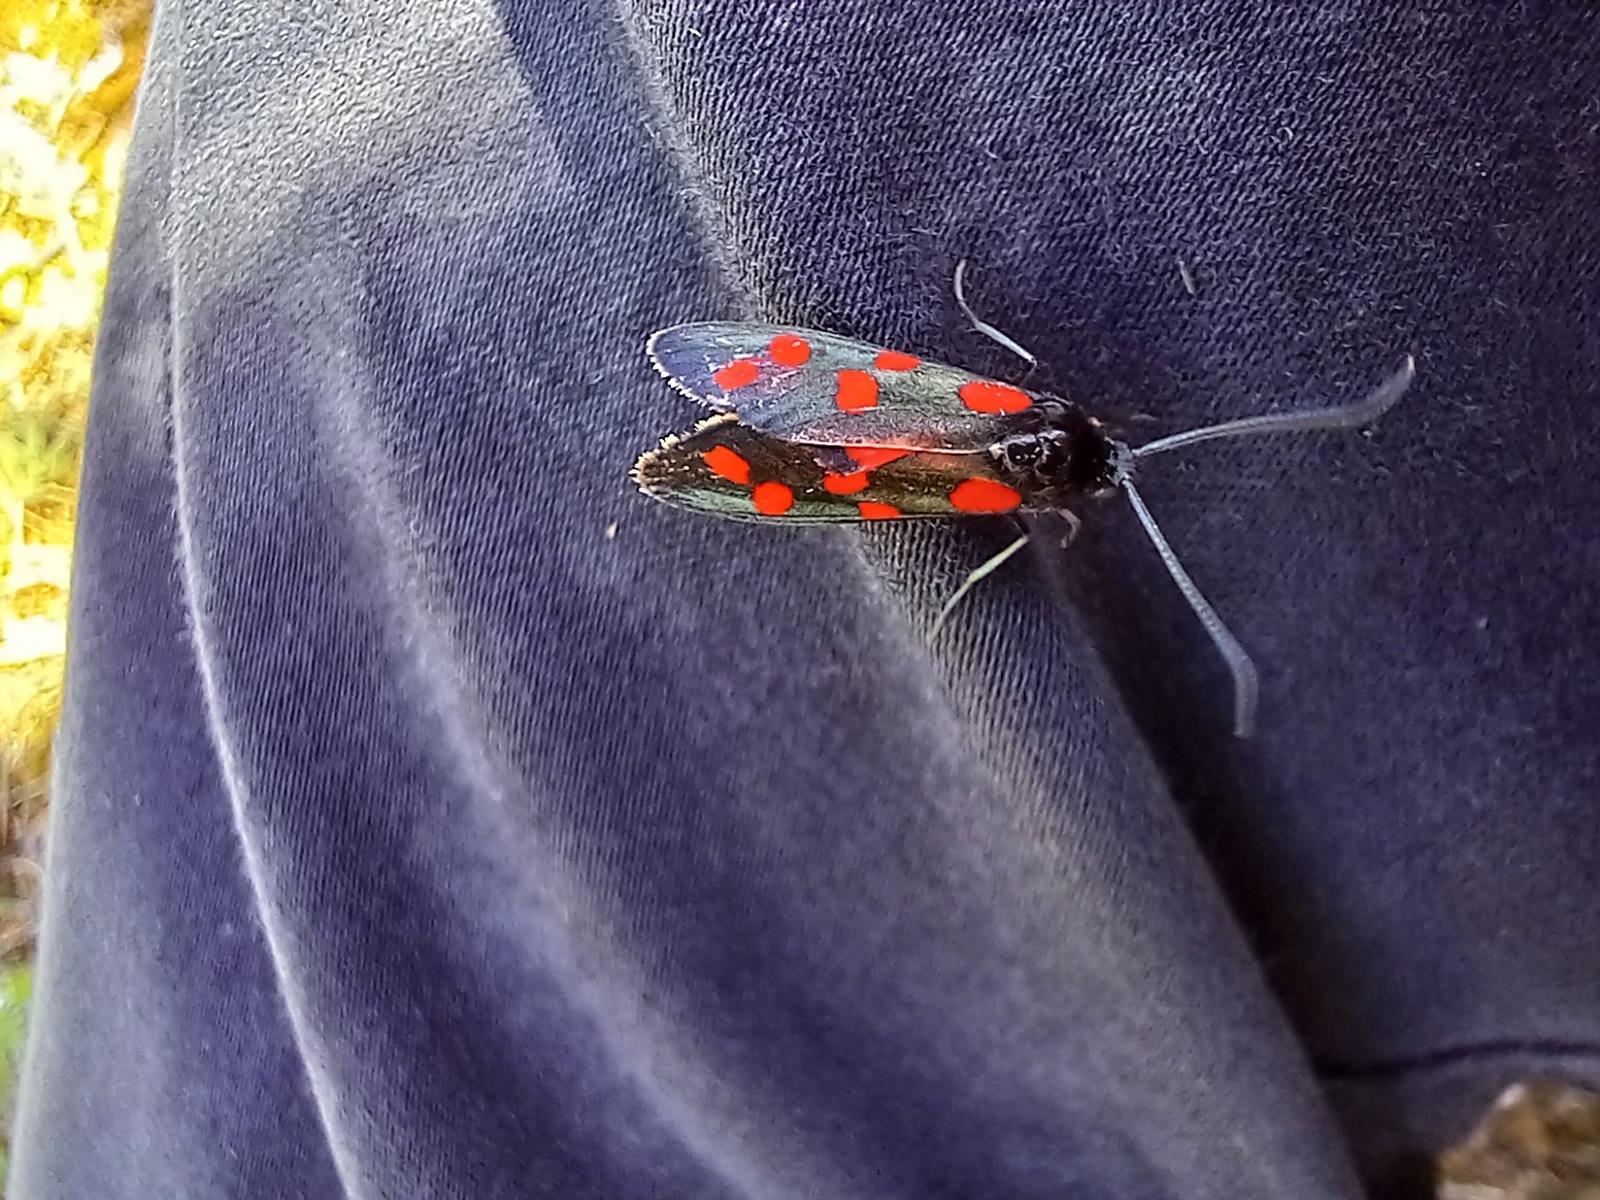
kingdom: Animalia
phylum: Arthropoda
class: Insecta
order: Lepidoptera
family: Zygaenidae
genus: Zygaena
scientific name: Zygaena transalpina
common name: Southern six spot burnet
